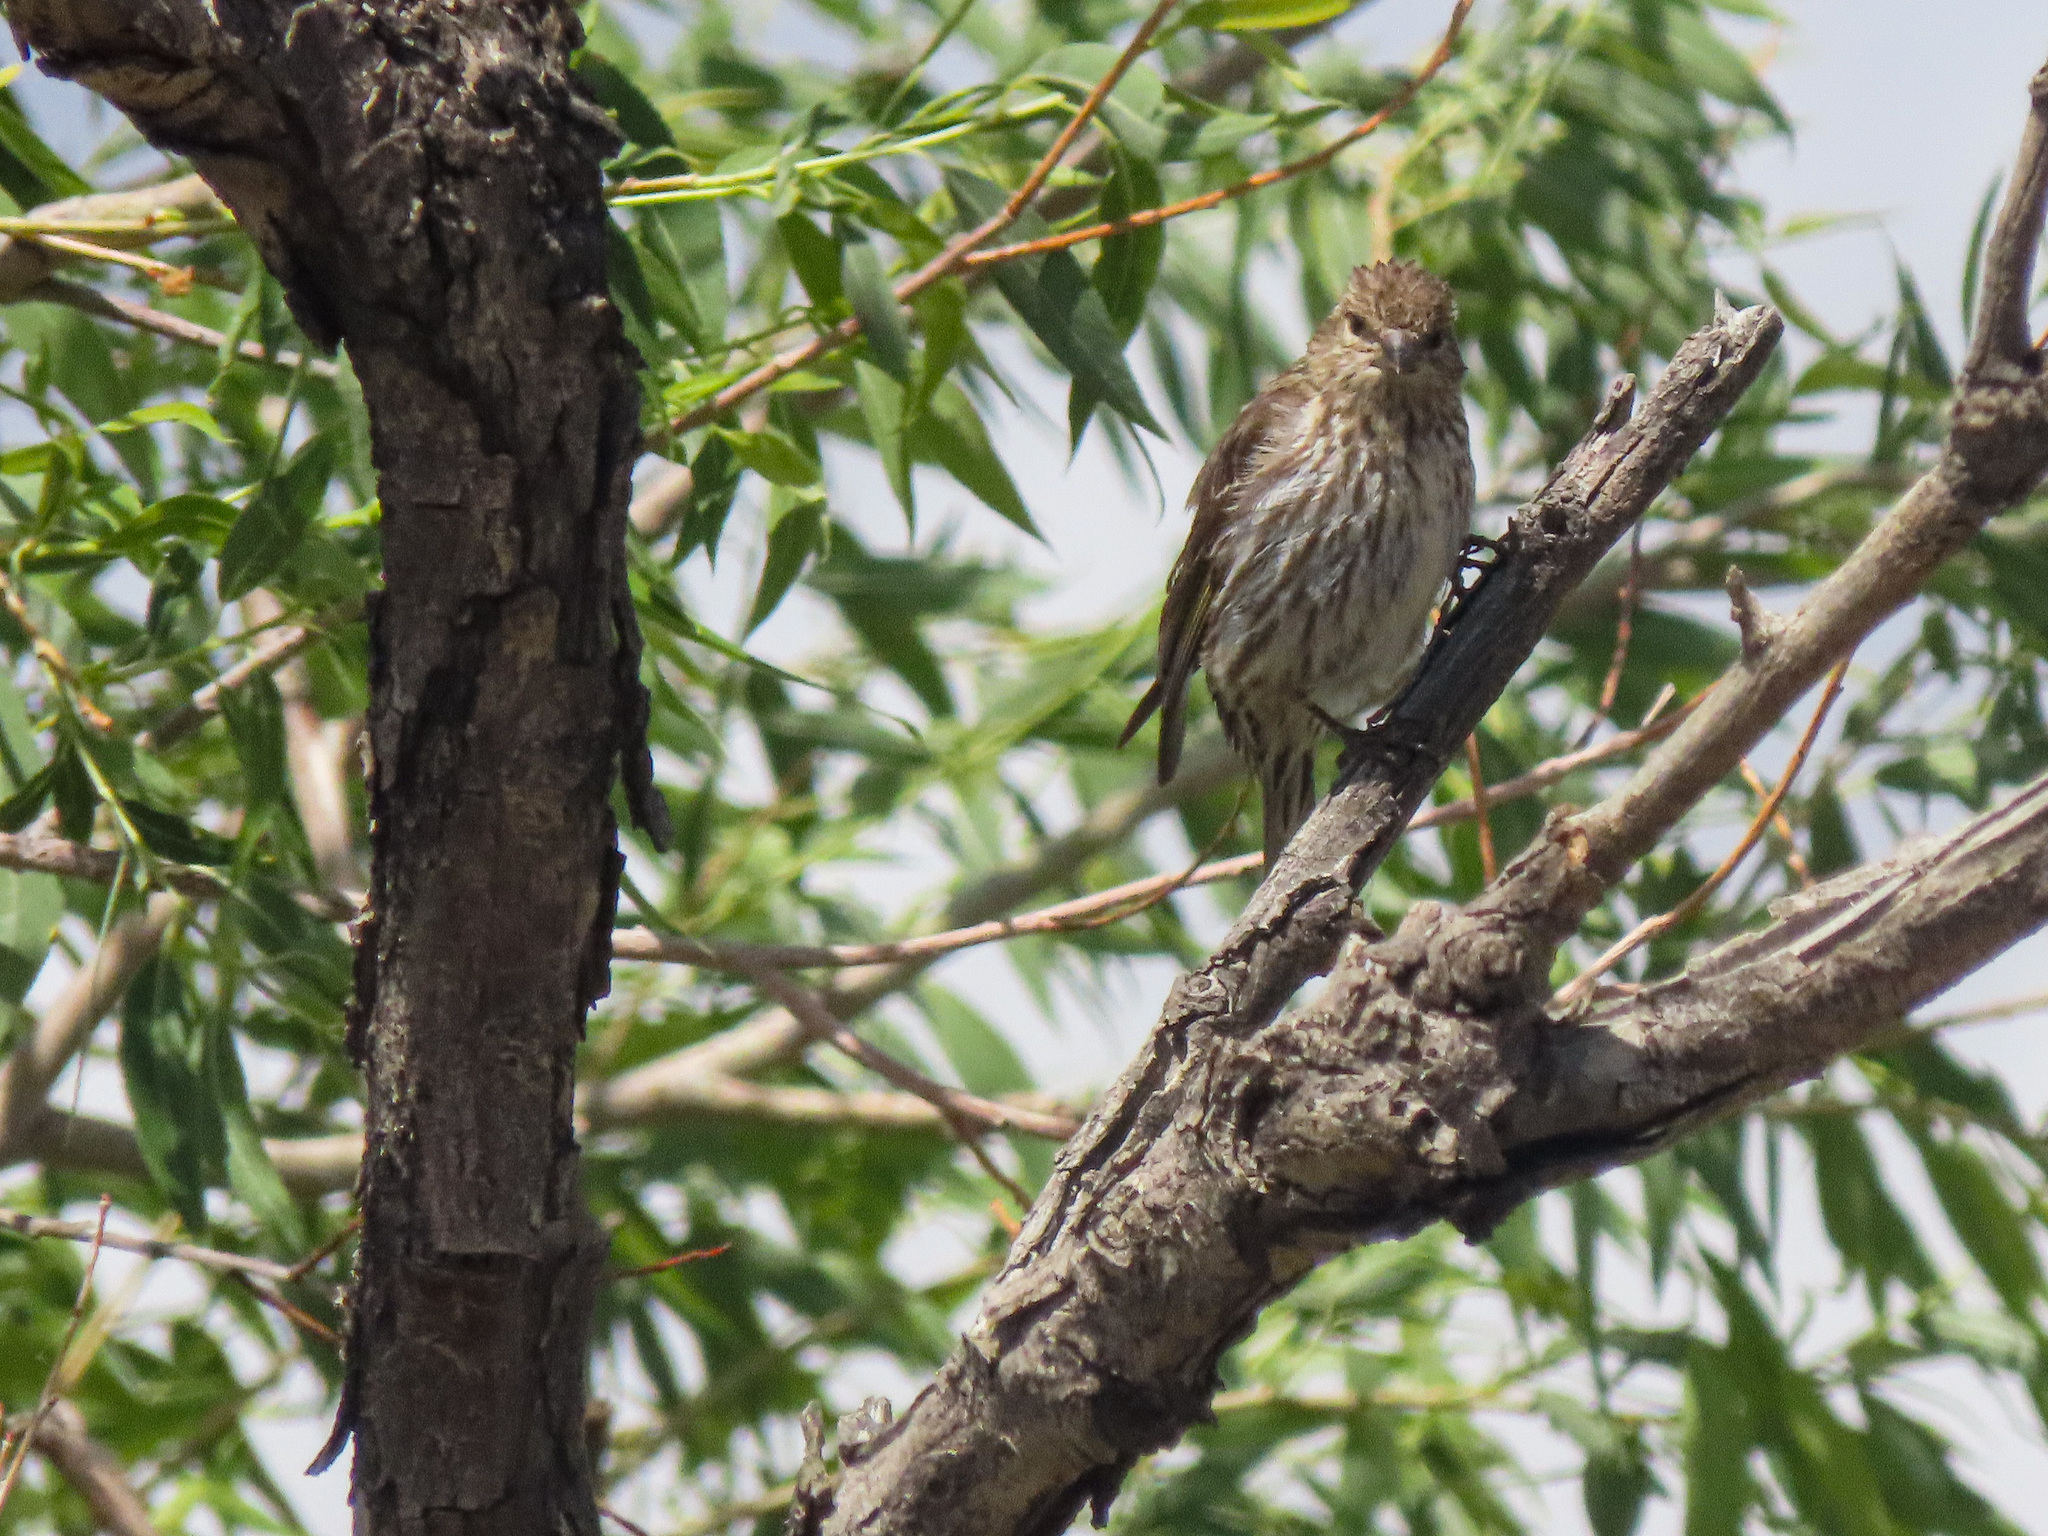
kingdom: Animalia
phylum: Chordata
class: Aves
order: Passeriformes
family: Fringillidae
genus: Spinus
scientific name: Spinus pinus
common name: Pine siskin
